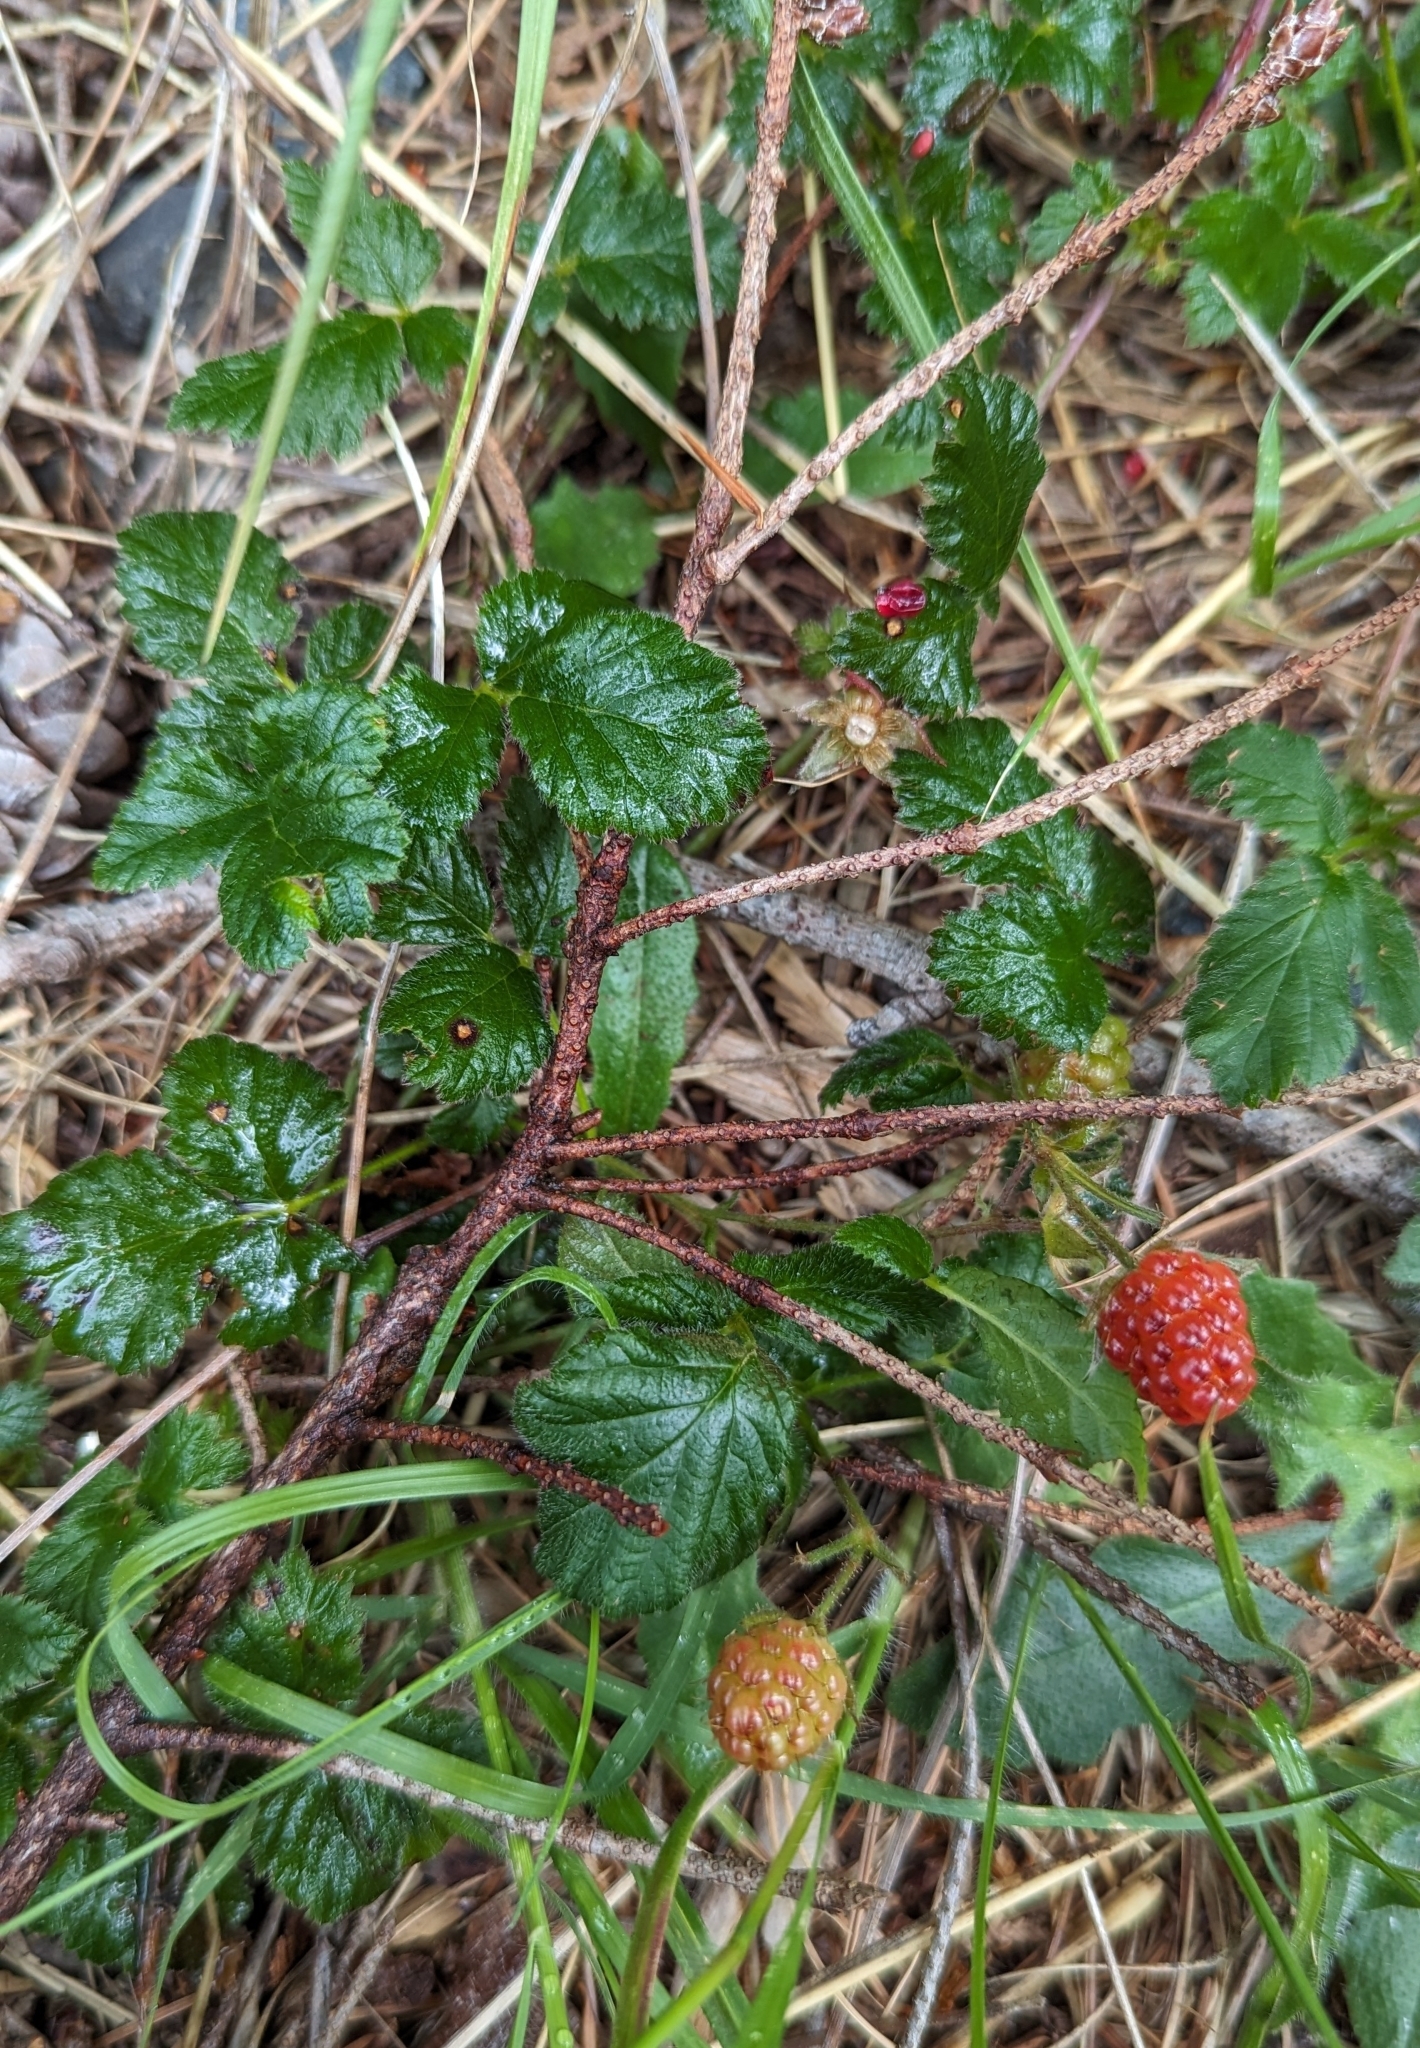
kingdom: Plantae
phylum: Tracheophyta
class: Magnoliopsida
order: Rosales
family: Rosaceae
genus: Rubus
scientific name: Rubus ursinus
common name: Pacific blackberry
